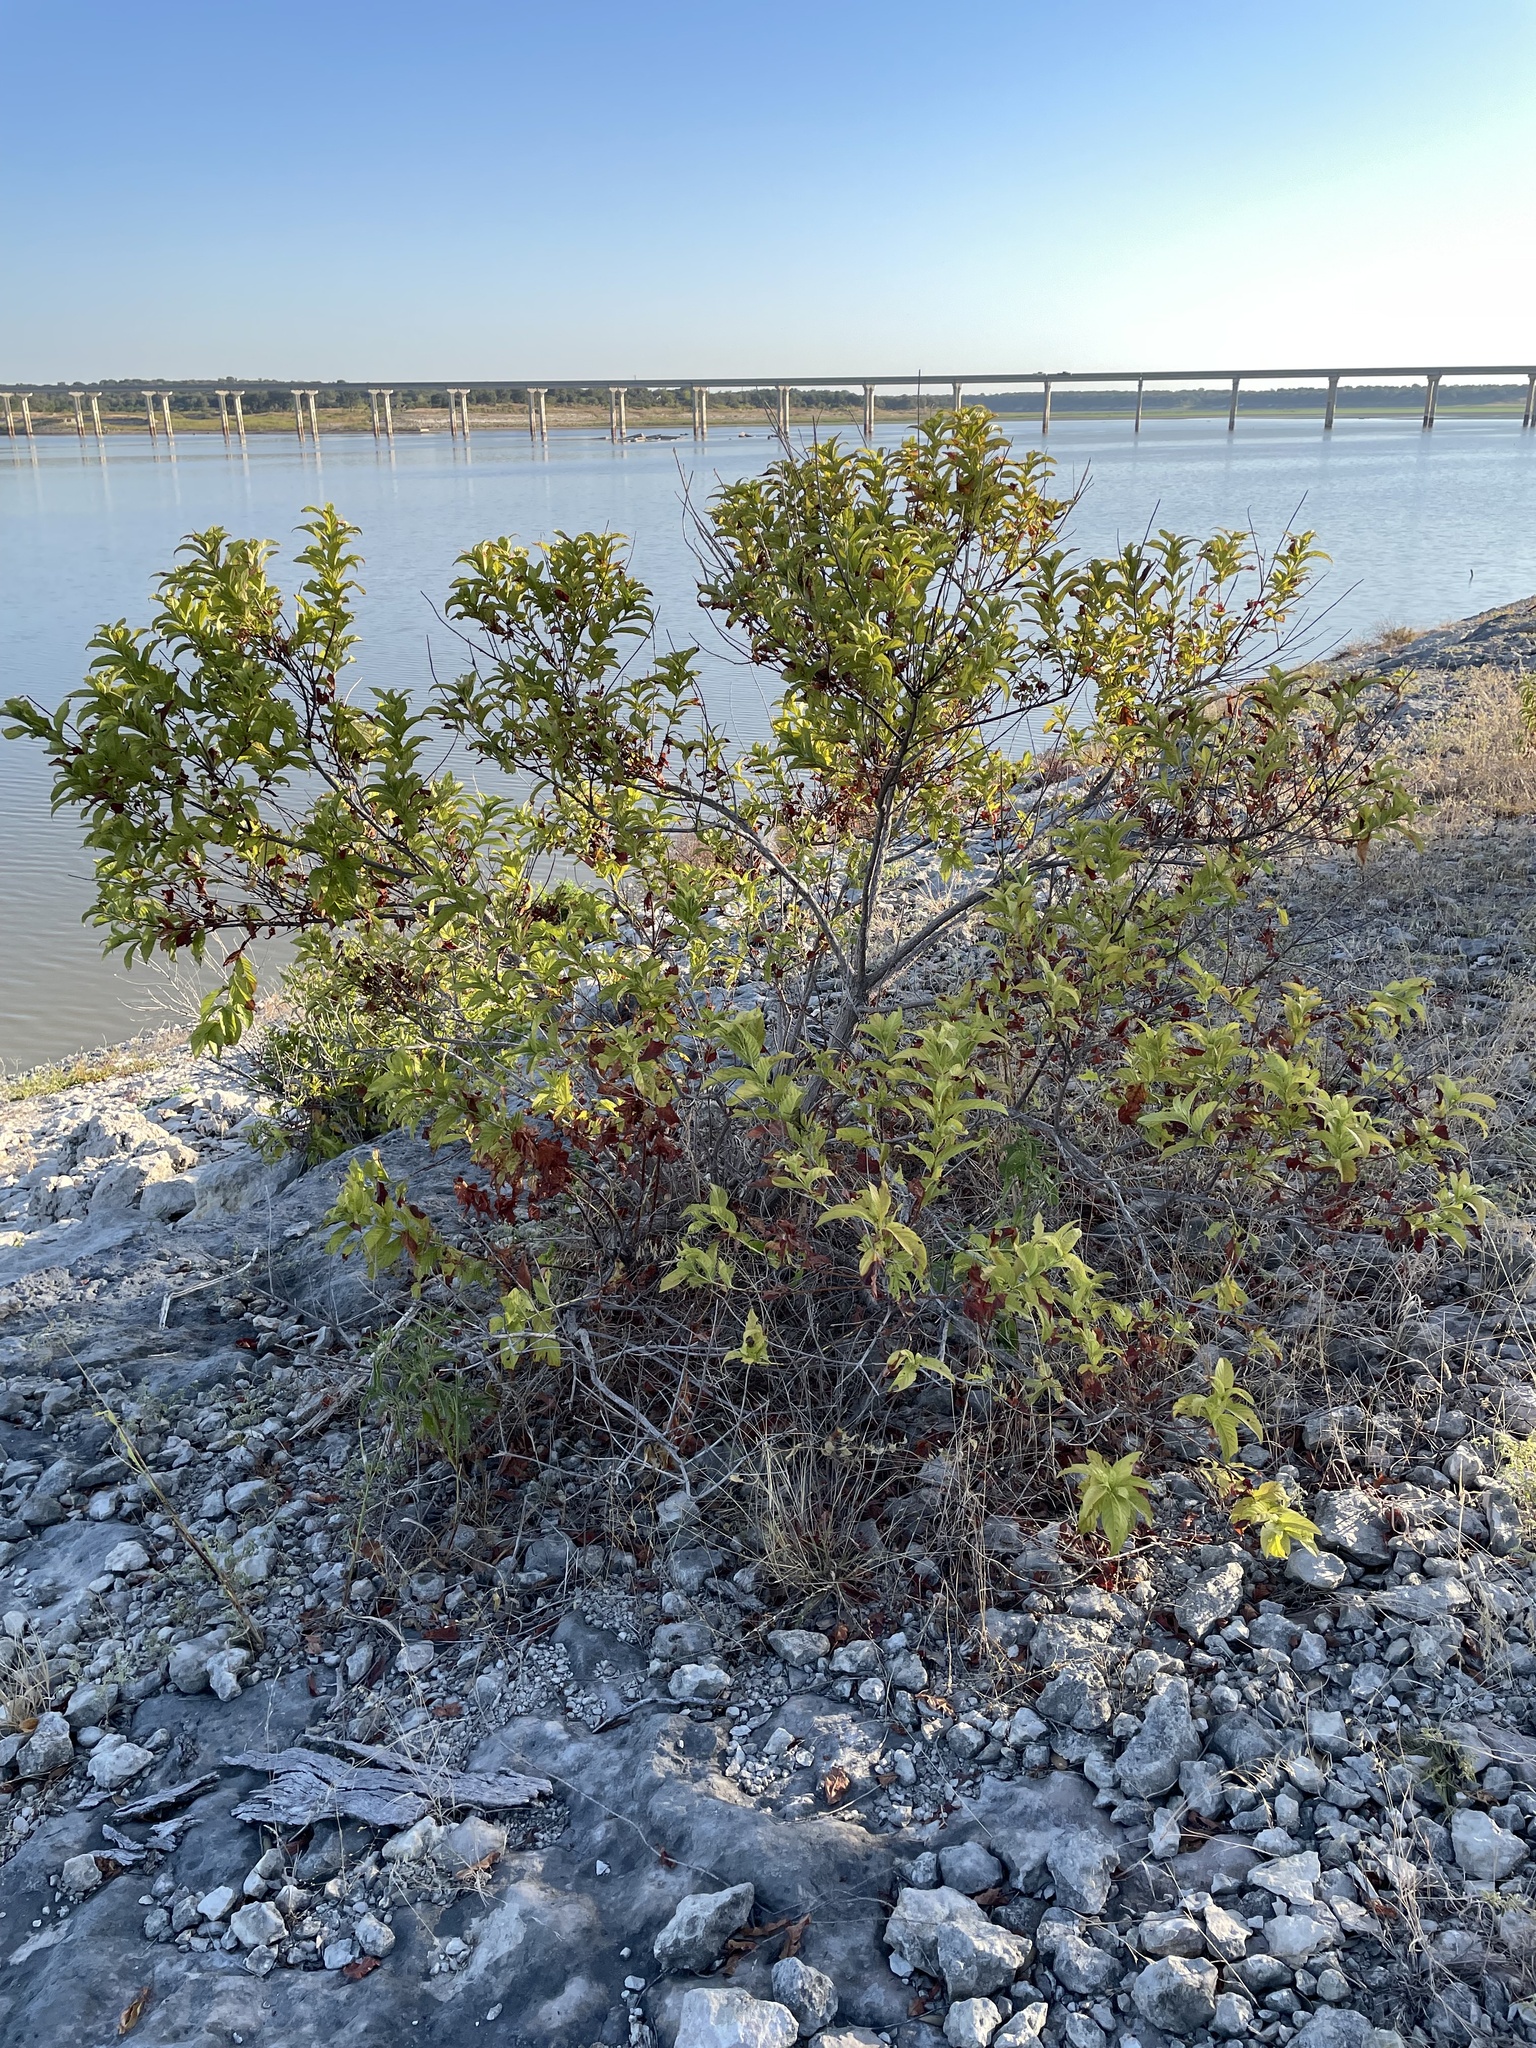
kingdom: Plantae
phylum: Tracheophyta
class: Magnoliopsida
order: Gentianales
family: Rubiaceae
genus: Cephalanthus
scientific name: Cephalanthus occidentalis
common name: Button-willow
